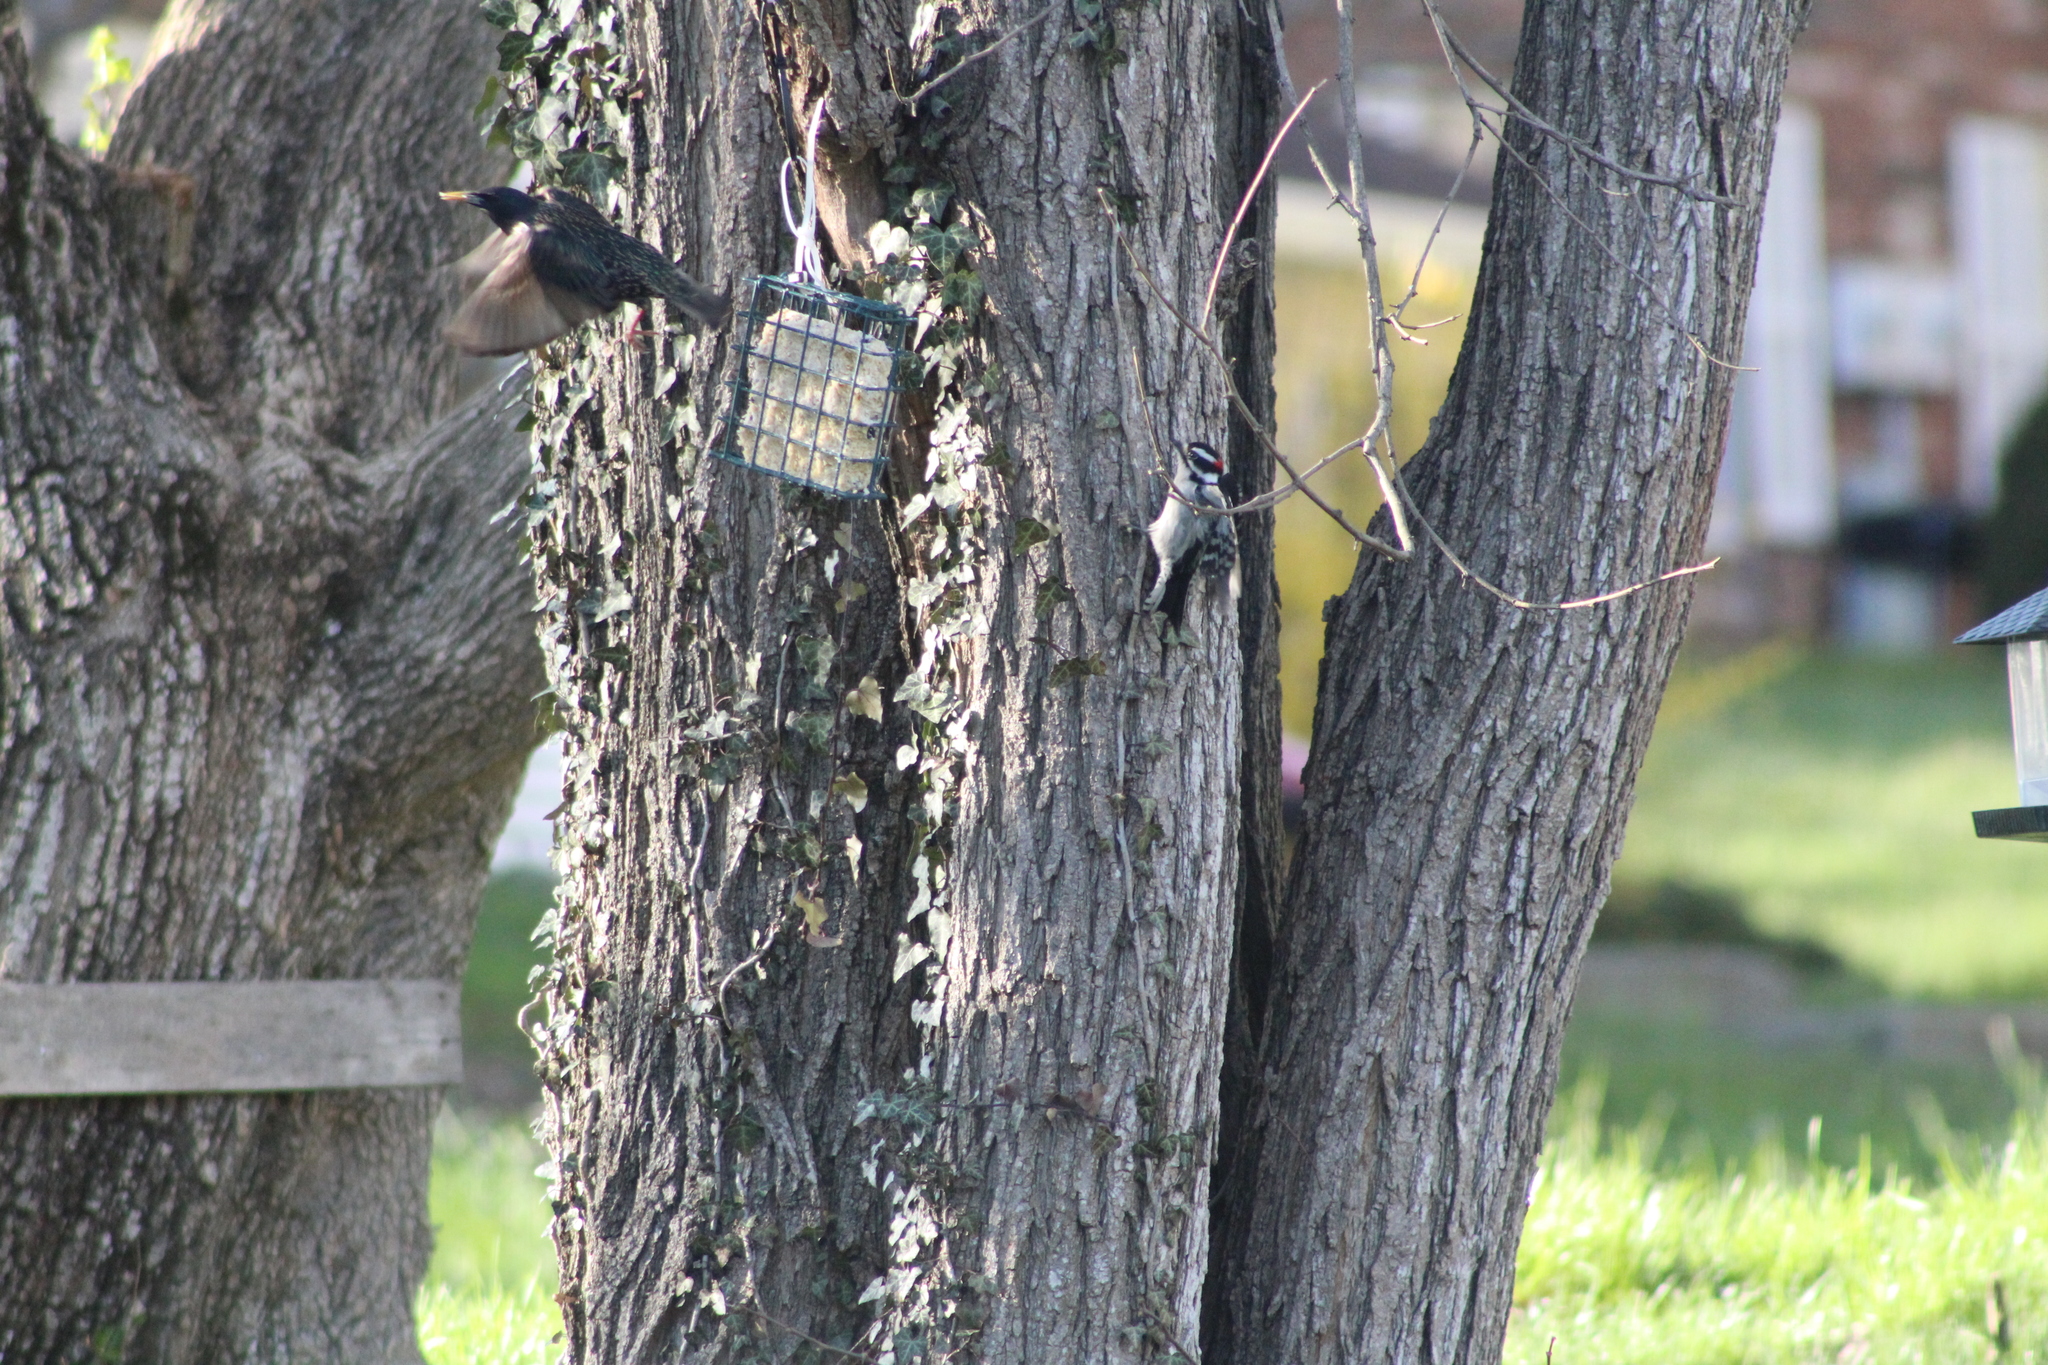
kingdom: Animalia
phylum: Chordata
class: Aves
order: Passeriformes
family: Sturnidae
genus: Sturnus
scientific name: Sturnus vulgaris
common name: Common starling
